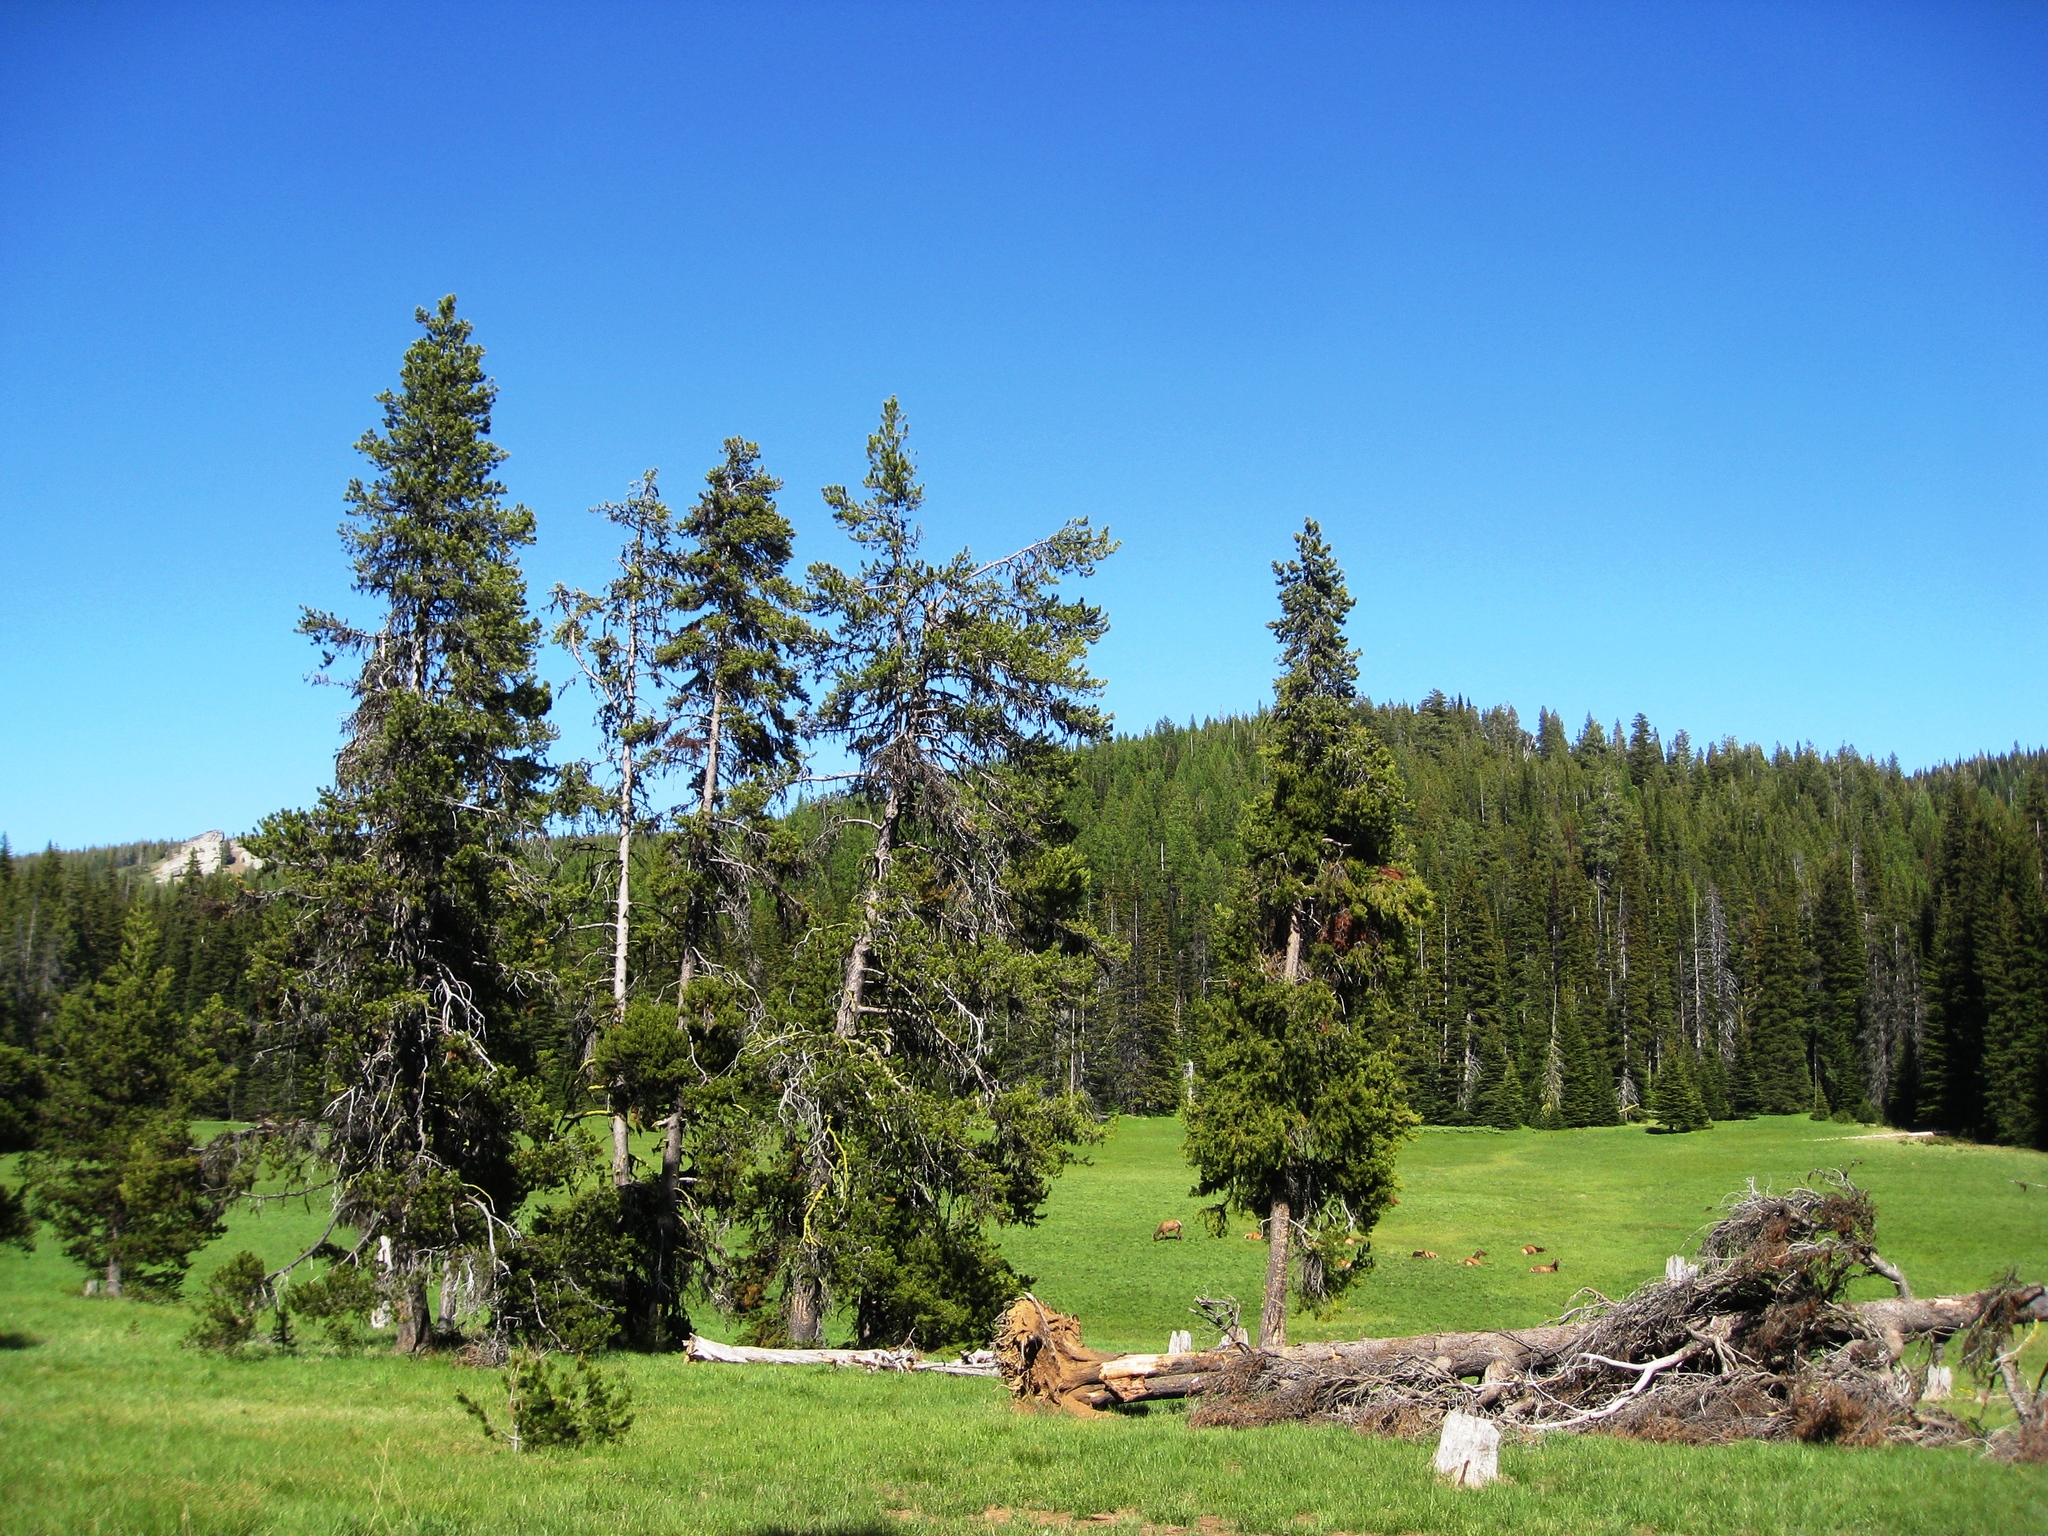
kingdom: Animalia
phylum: Chordata
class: Mammalia
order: Artiodactyla
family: Cervidae
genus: Cervus
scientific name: Cervus elaphus
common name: Red deer
